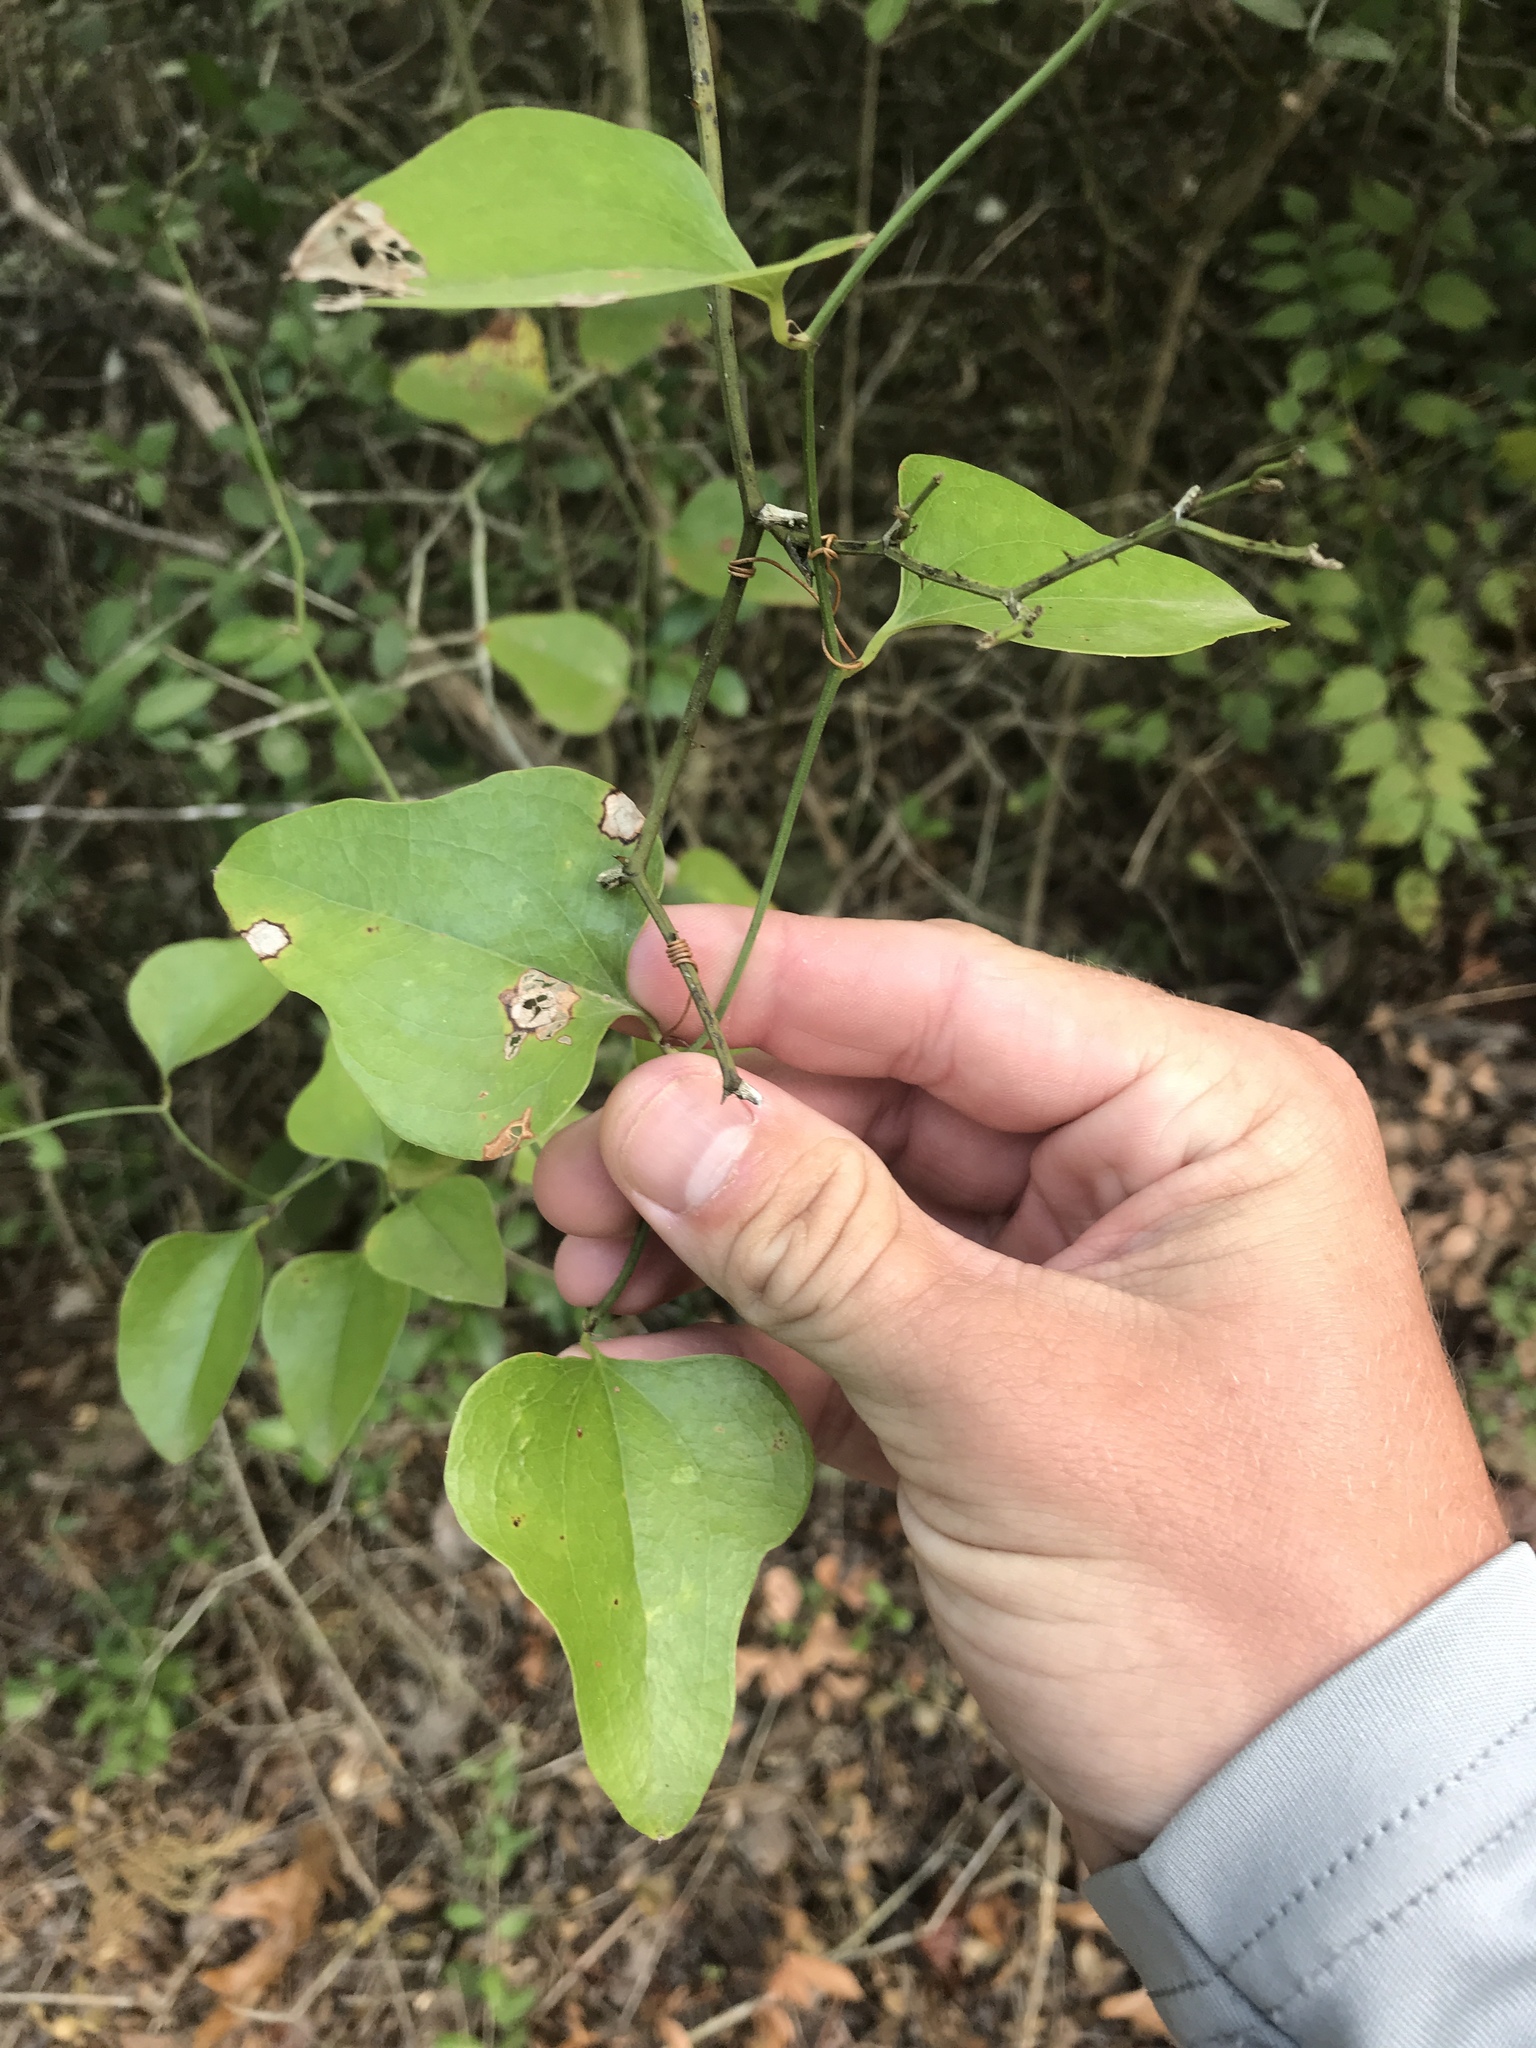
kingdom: Plantae
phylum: Tracheophyta
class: Liliopsida
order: Liliales
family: Smilacaceae
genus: Smilax
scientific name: Smilax bona-nox
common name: Catbrier
